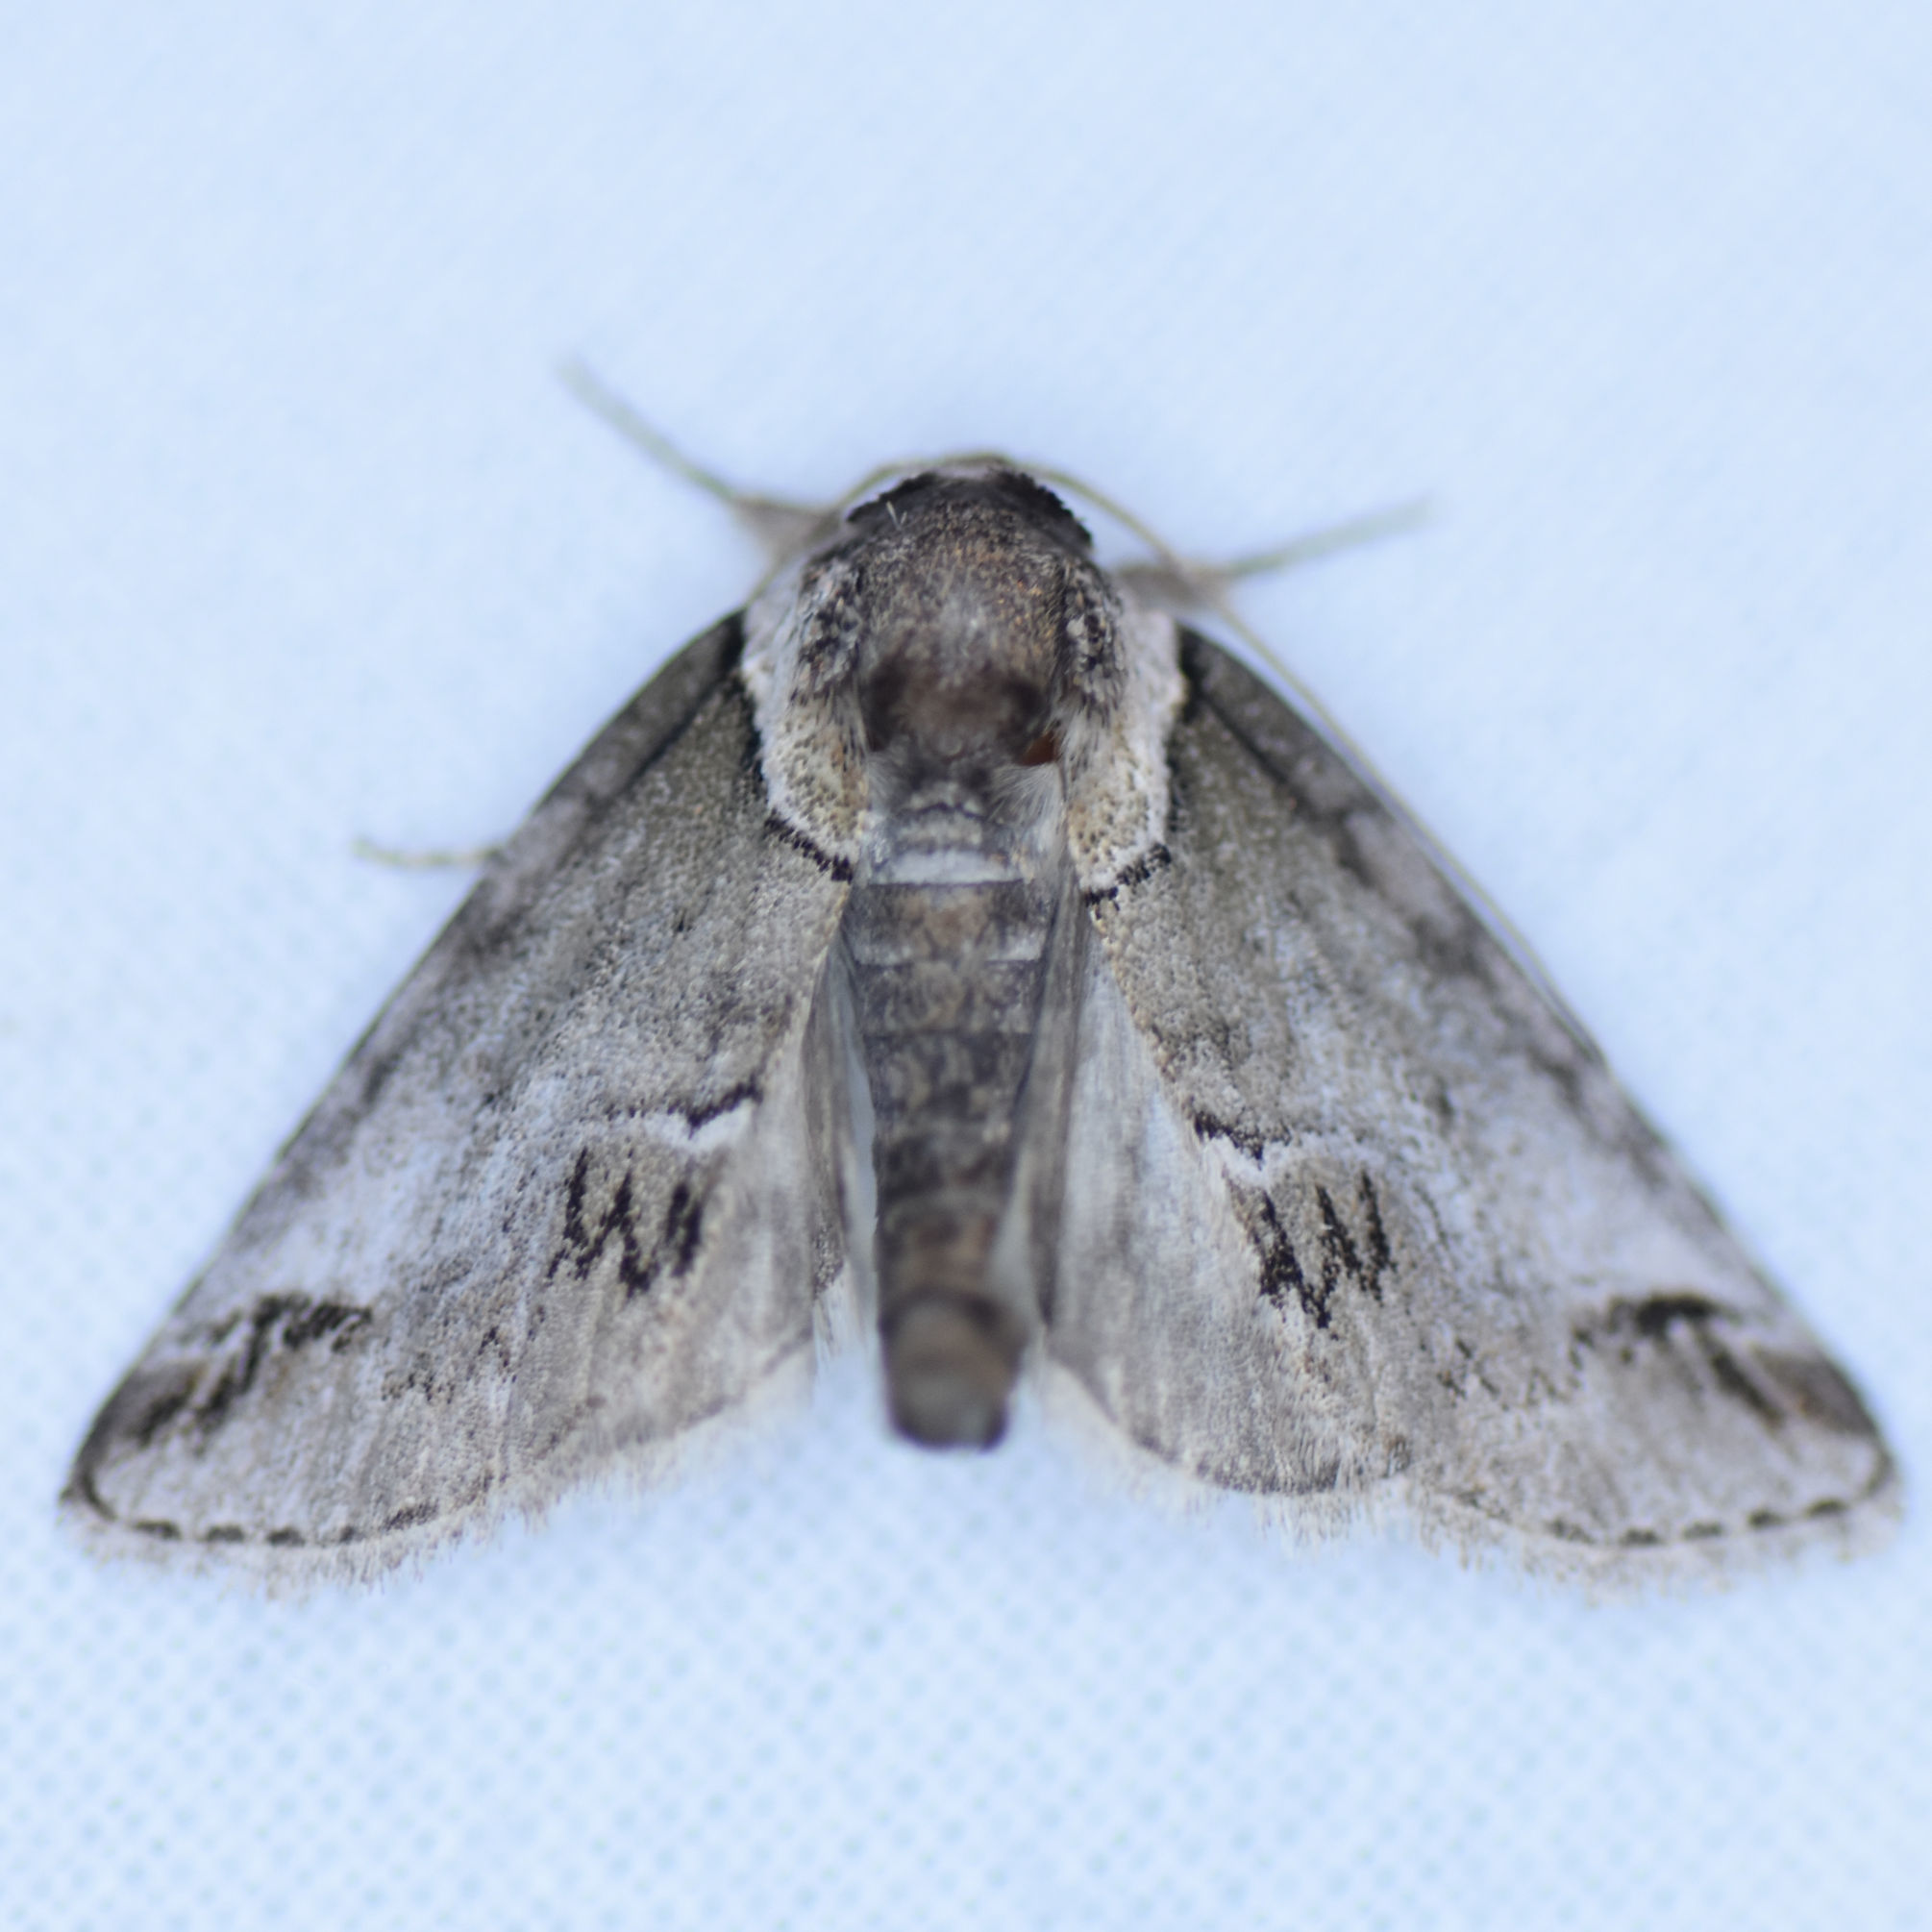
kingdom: Animalia
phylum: Arthropoda
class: Insecta
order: Lepidoptera
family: Nolidae
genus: Baileya
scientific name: Baileya australis
